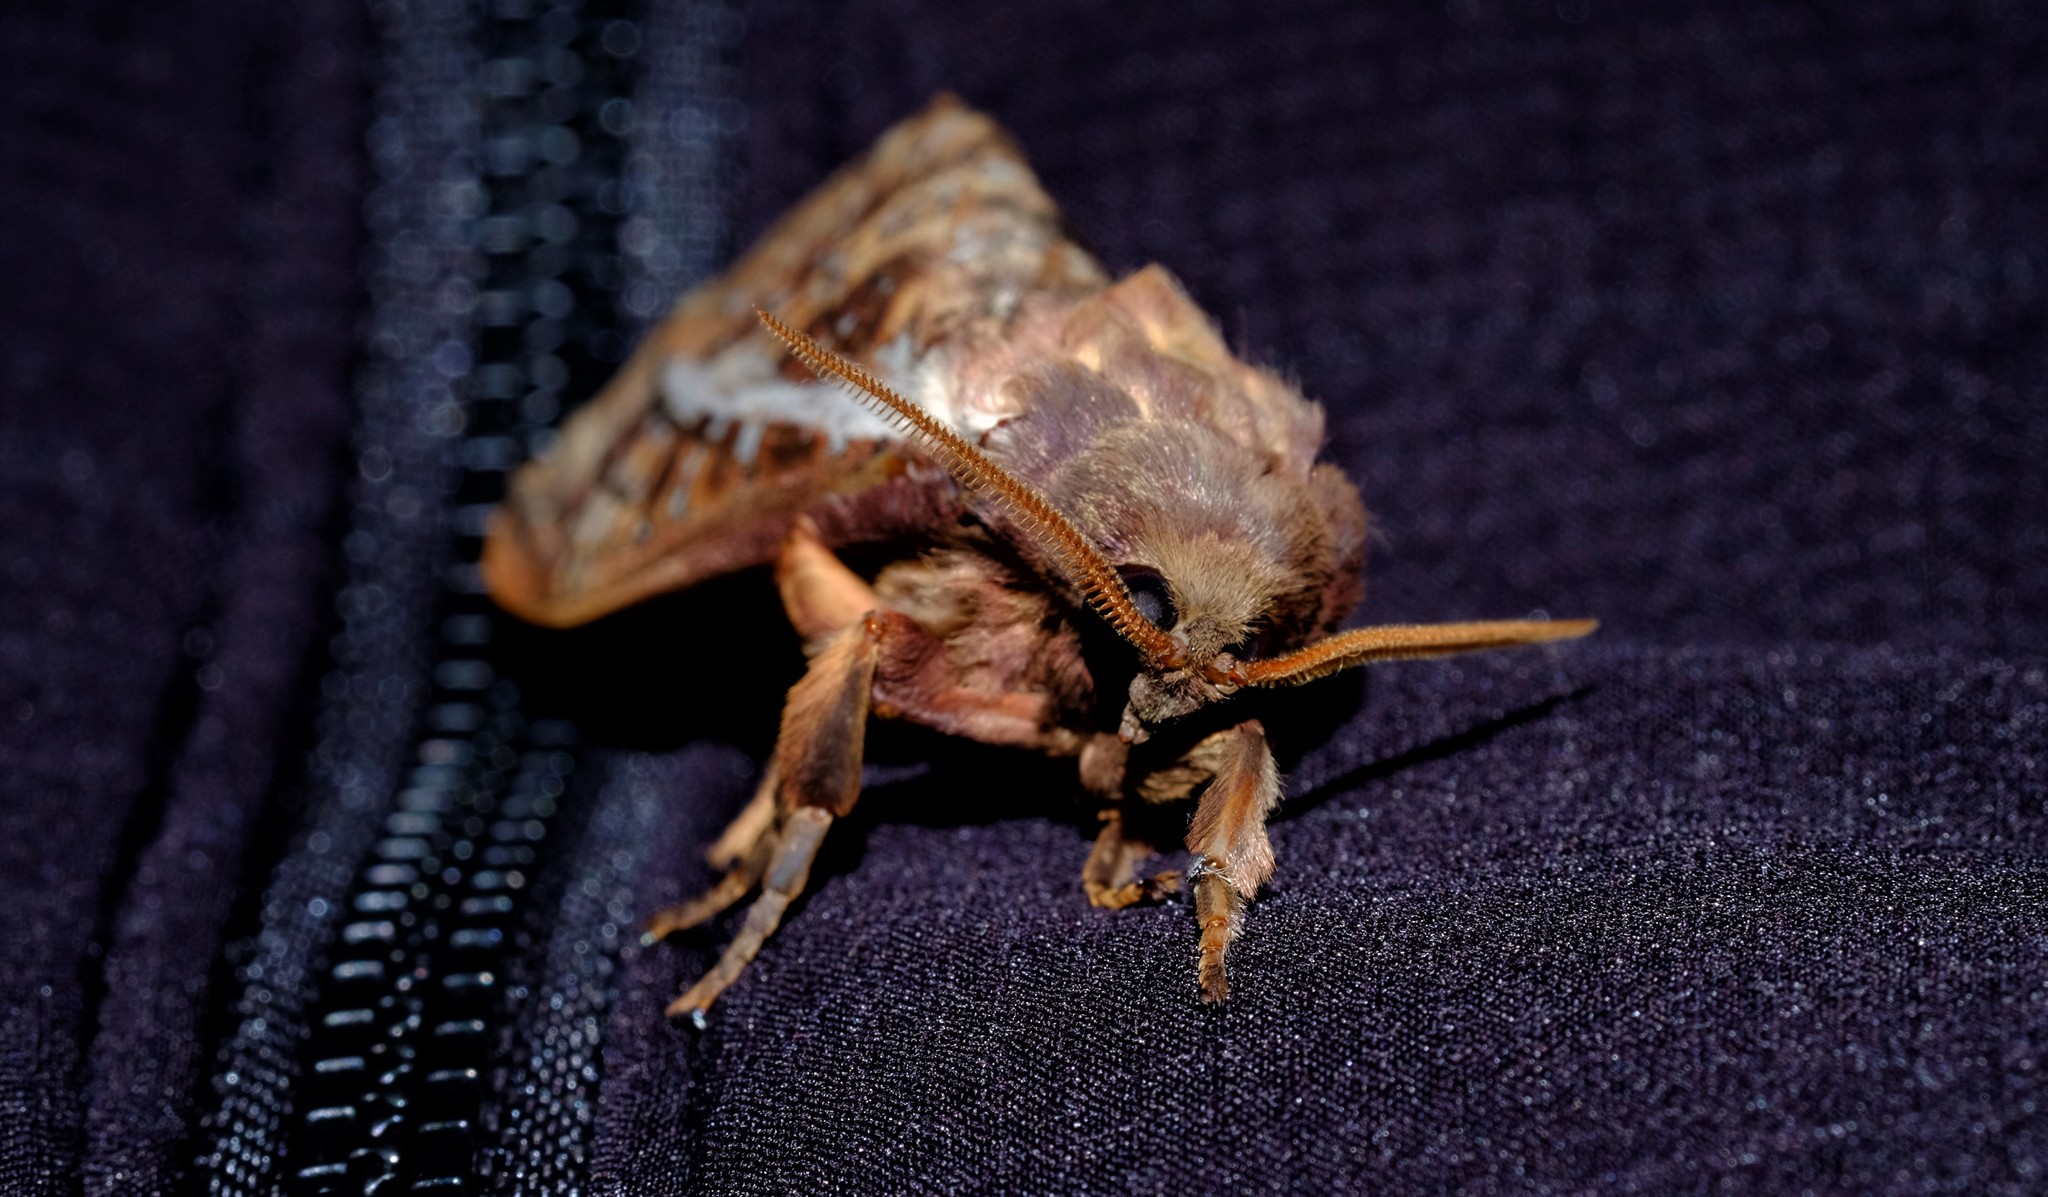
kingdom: Animalia
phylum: Arthropoda
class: Insecta
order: Lepidoptera
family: Hepialidae
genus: Oxycanus
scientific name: Oxycanus australis
